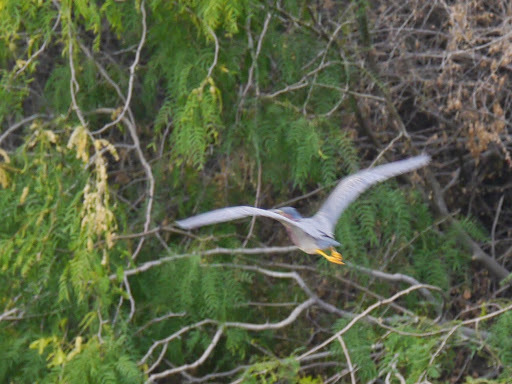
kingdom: Animalia
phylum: Chordata
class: Aves
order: Pelecaniformes
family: Ardeidae
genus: Butorides
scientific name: Butorides virescens
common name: Green heron
